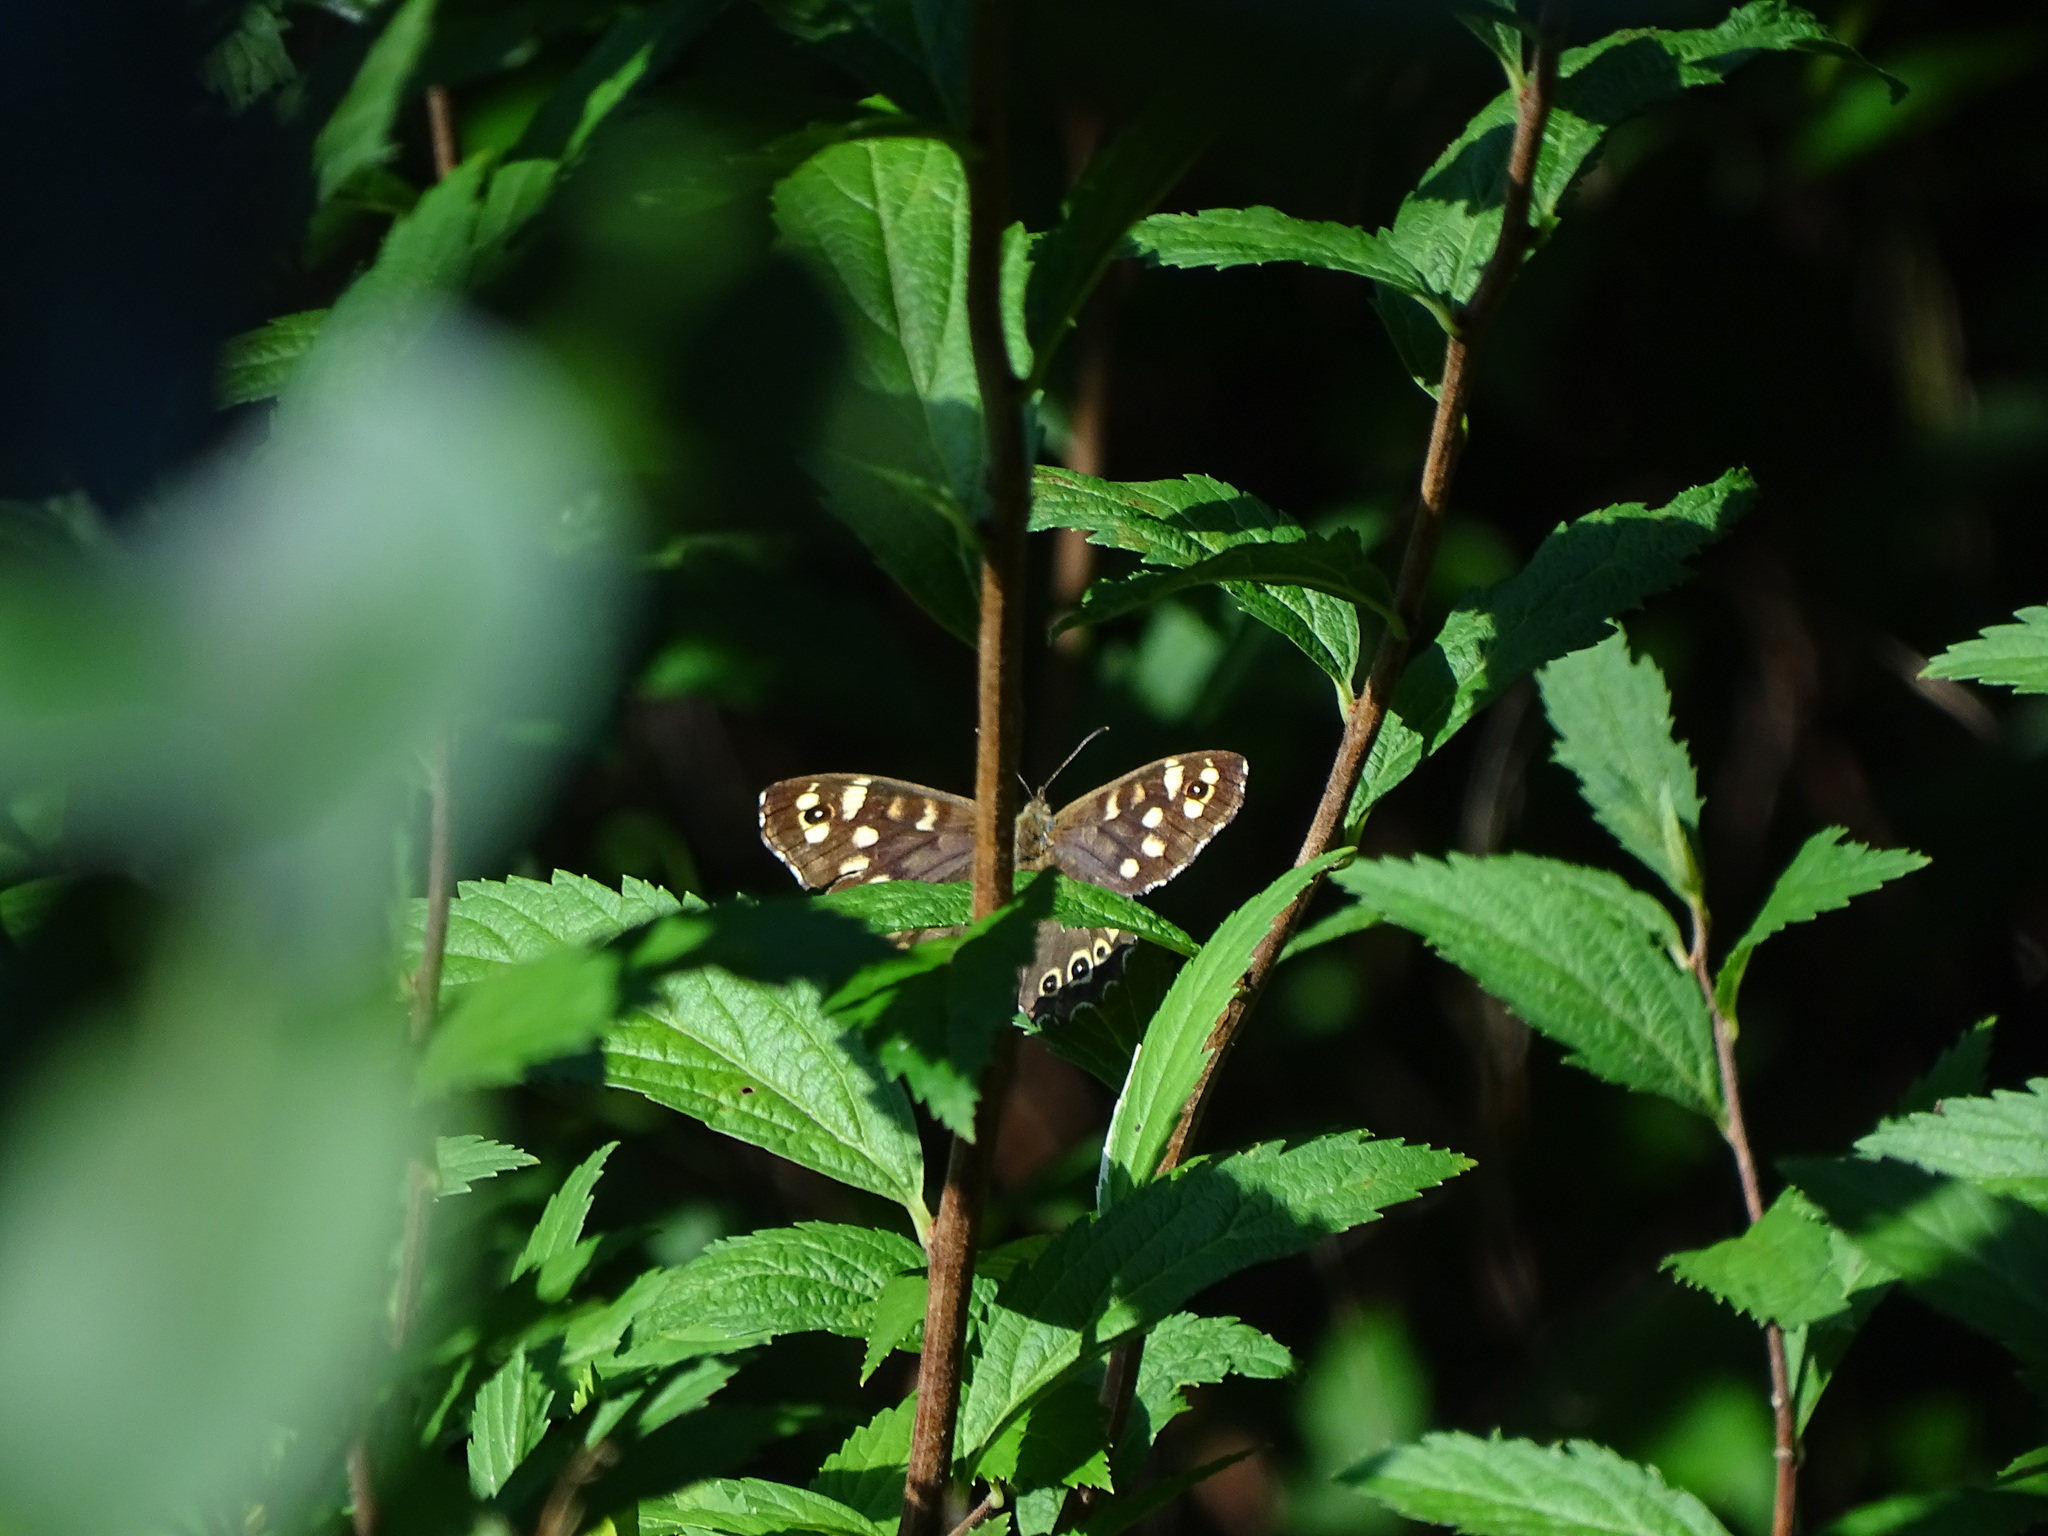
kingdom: Animalia
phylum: Arthropoda
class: Insecta
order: Lepidoptera
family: Nymphalidae
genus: Pararge
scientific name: Pararge aegeria
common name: Speckled wood
